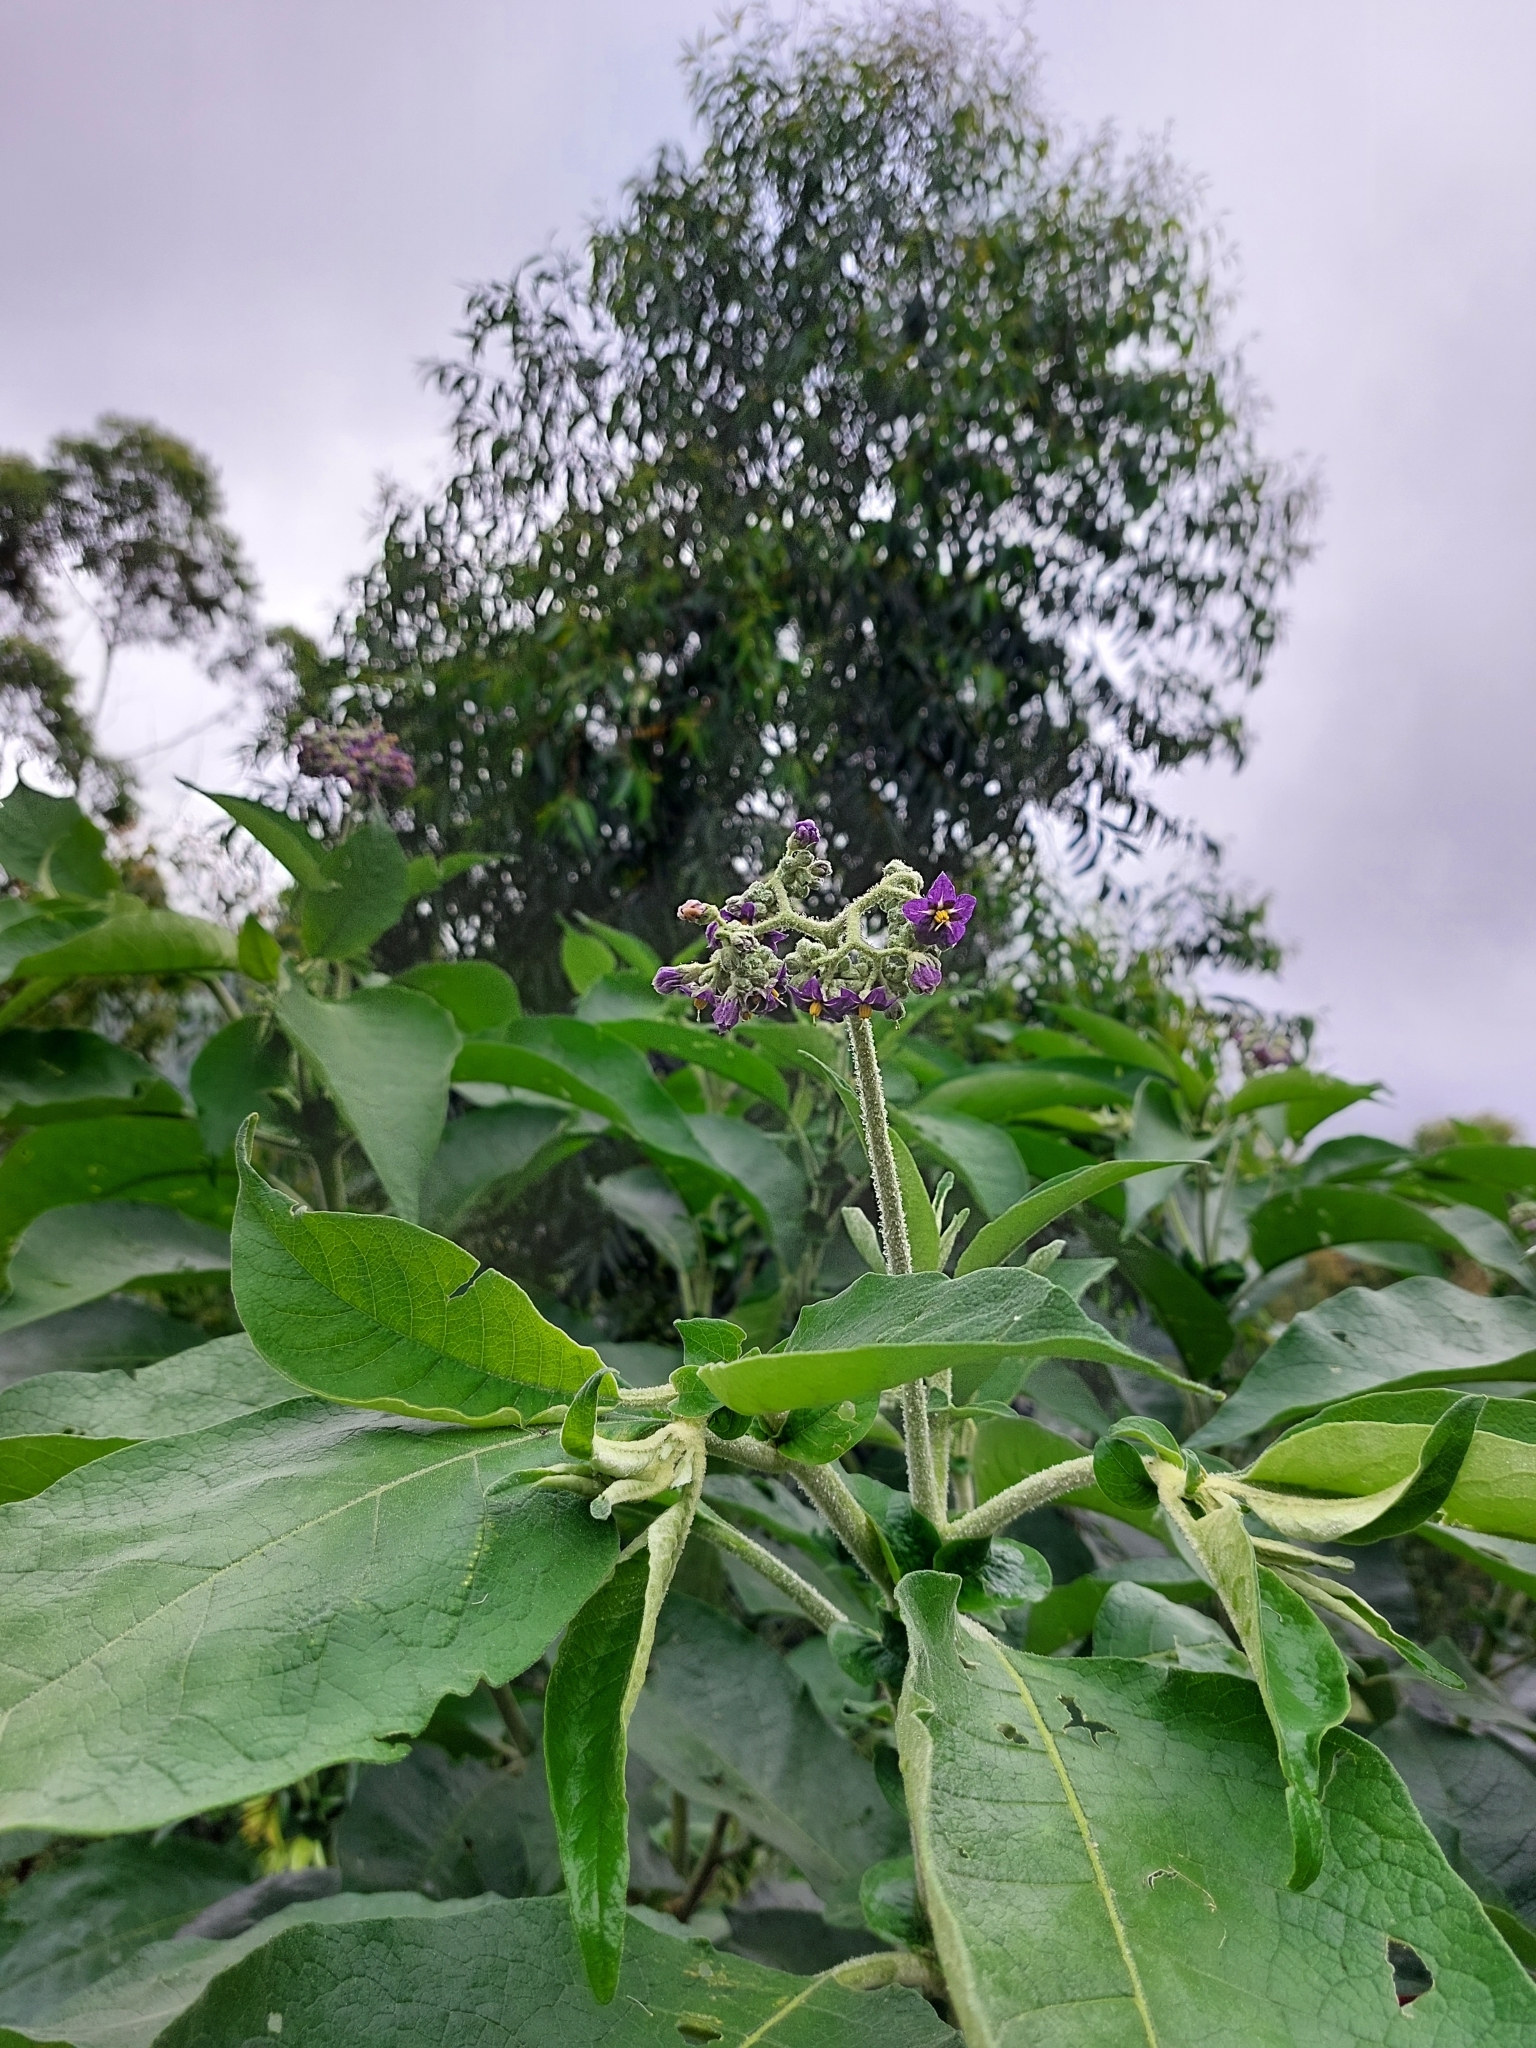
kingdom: Plantae
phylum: Tracheophyta
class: Magnoliopsida
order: Solanales
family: Solanaceae
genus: Solanum
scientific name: Solanum mauritianum
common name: Earleaf nightshade
